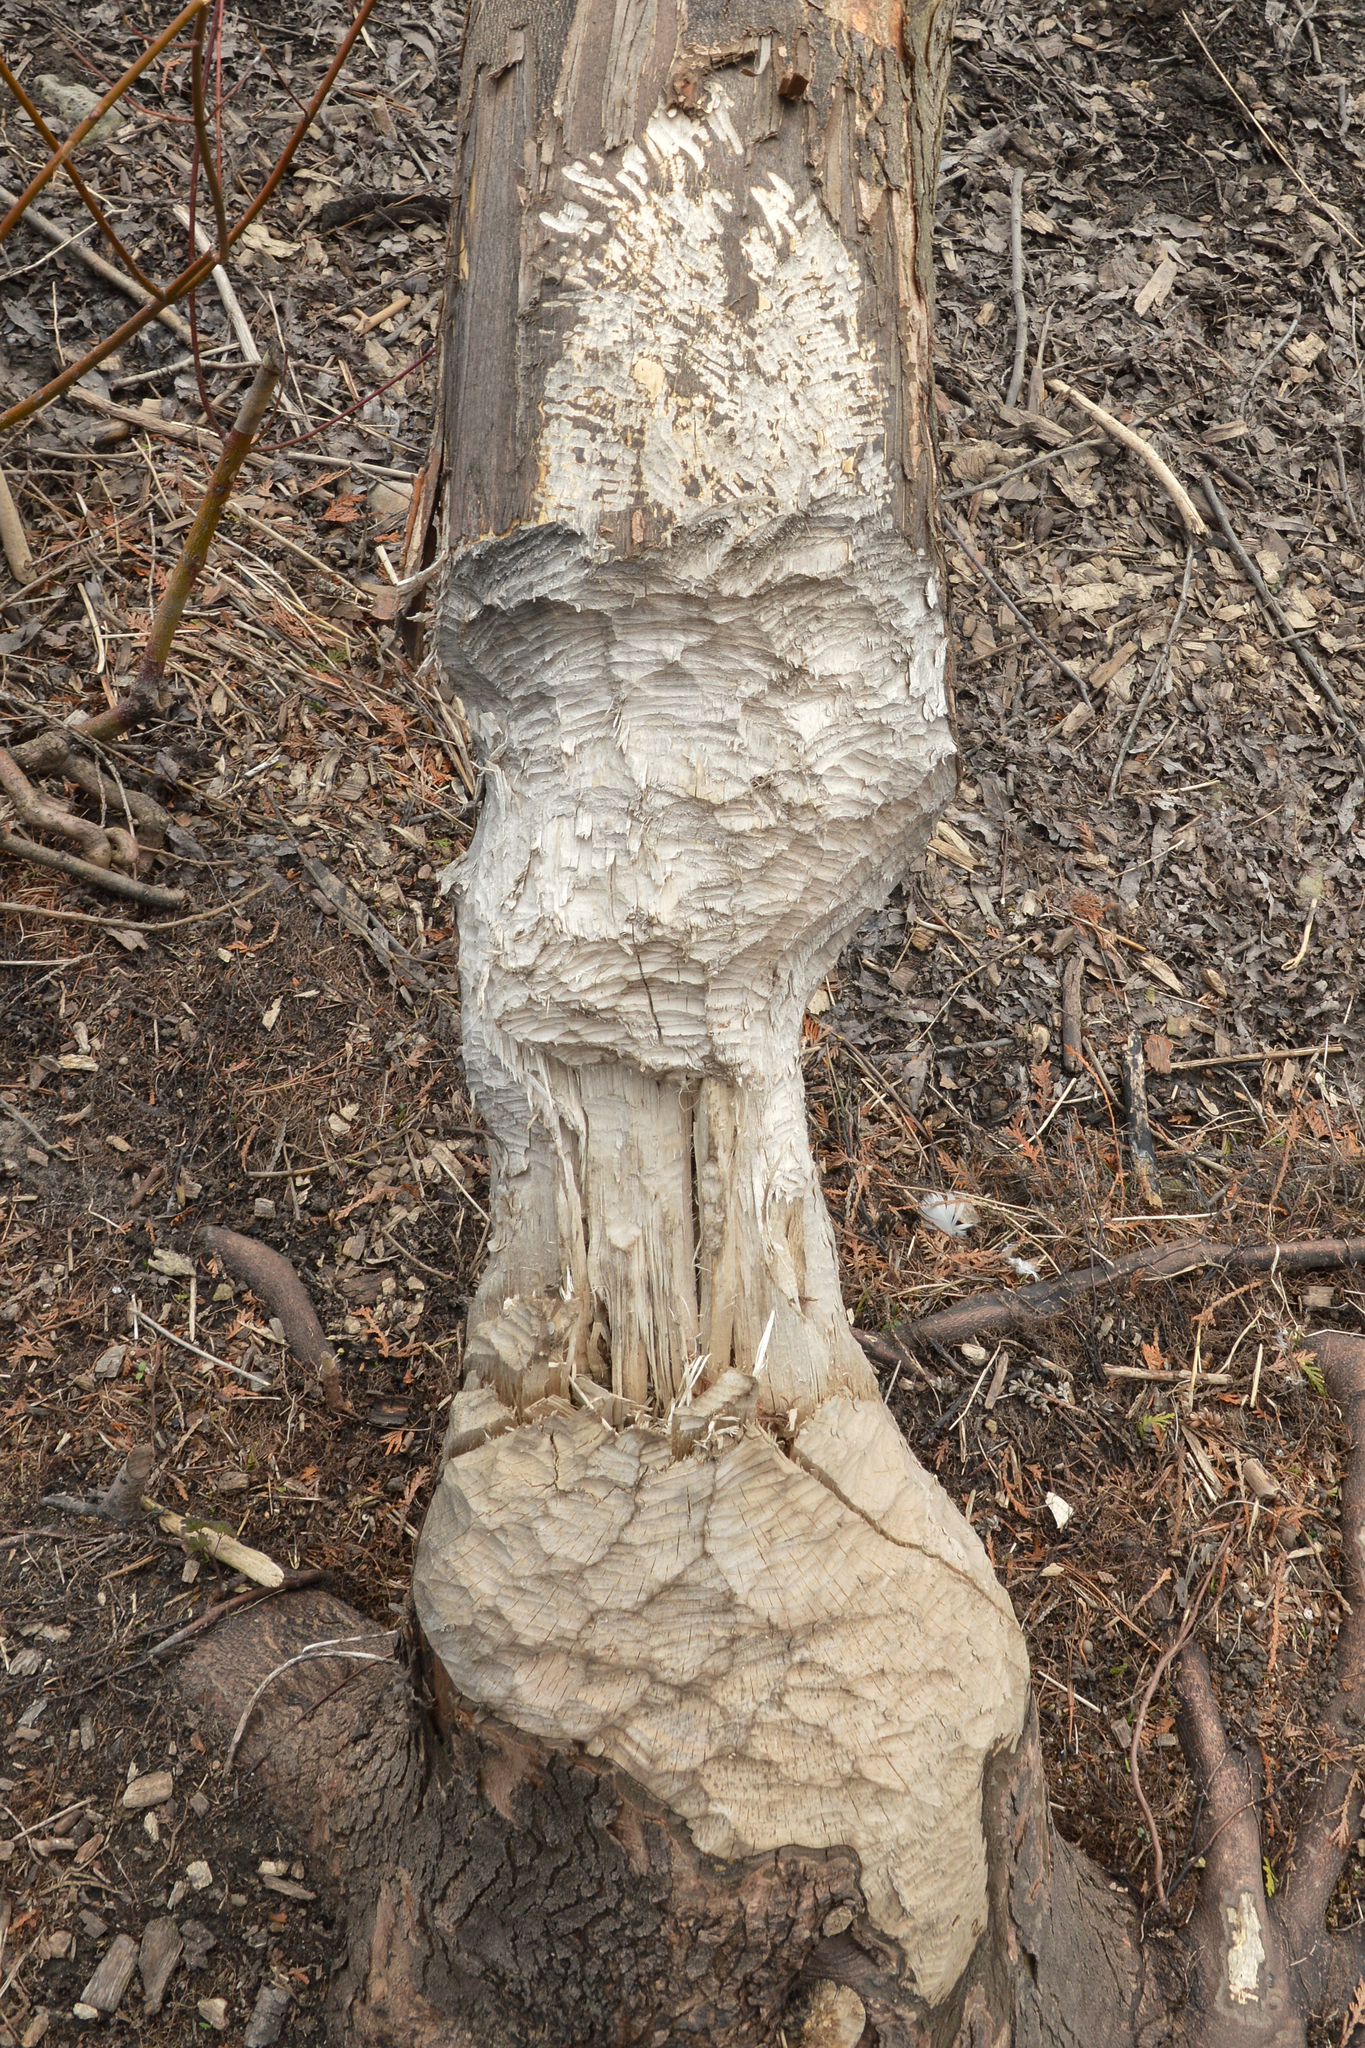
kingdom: Animalia
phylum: Chordata
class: Mammalia
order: Rodentia
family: Castoridae
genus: Castor
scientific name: Castor canadensis
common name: American beaver
